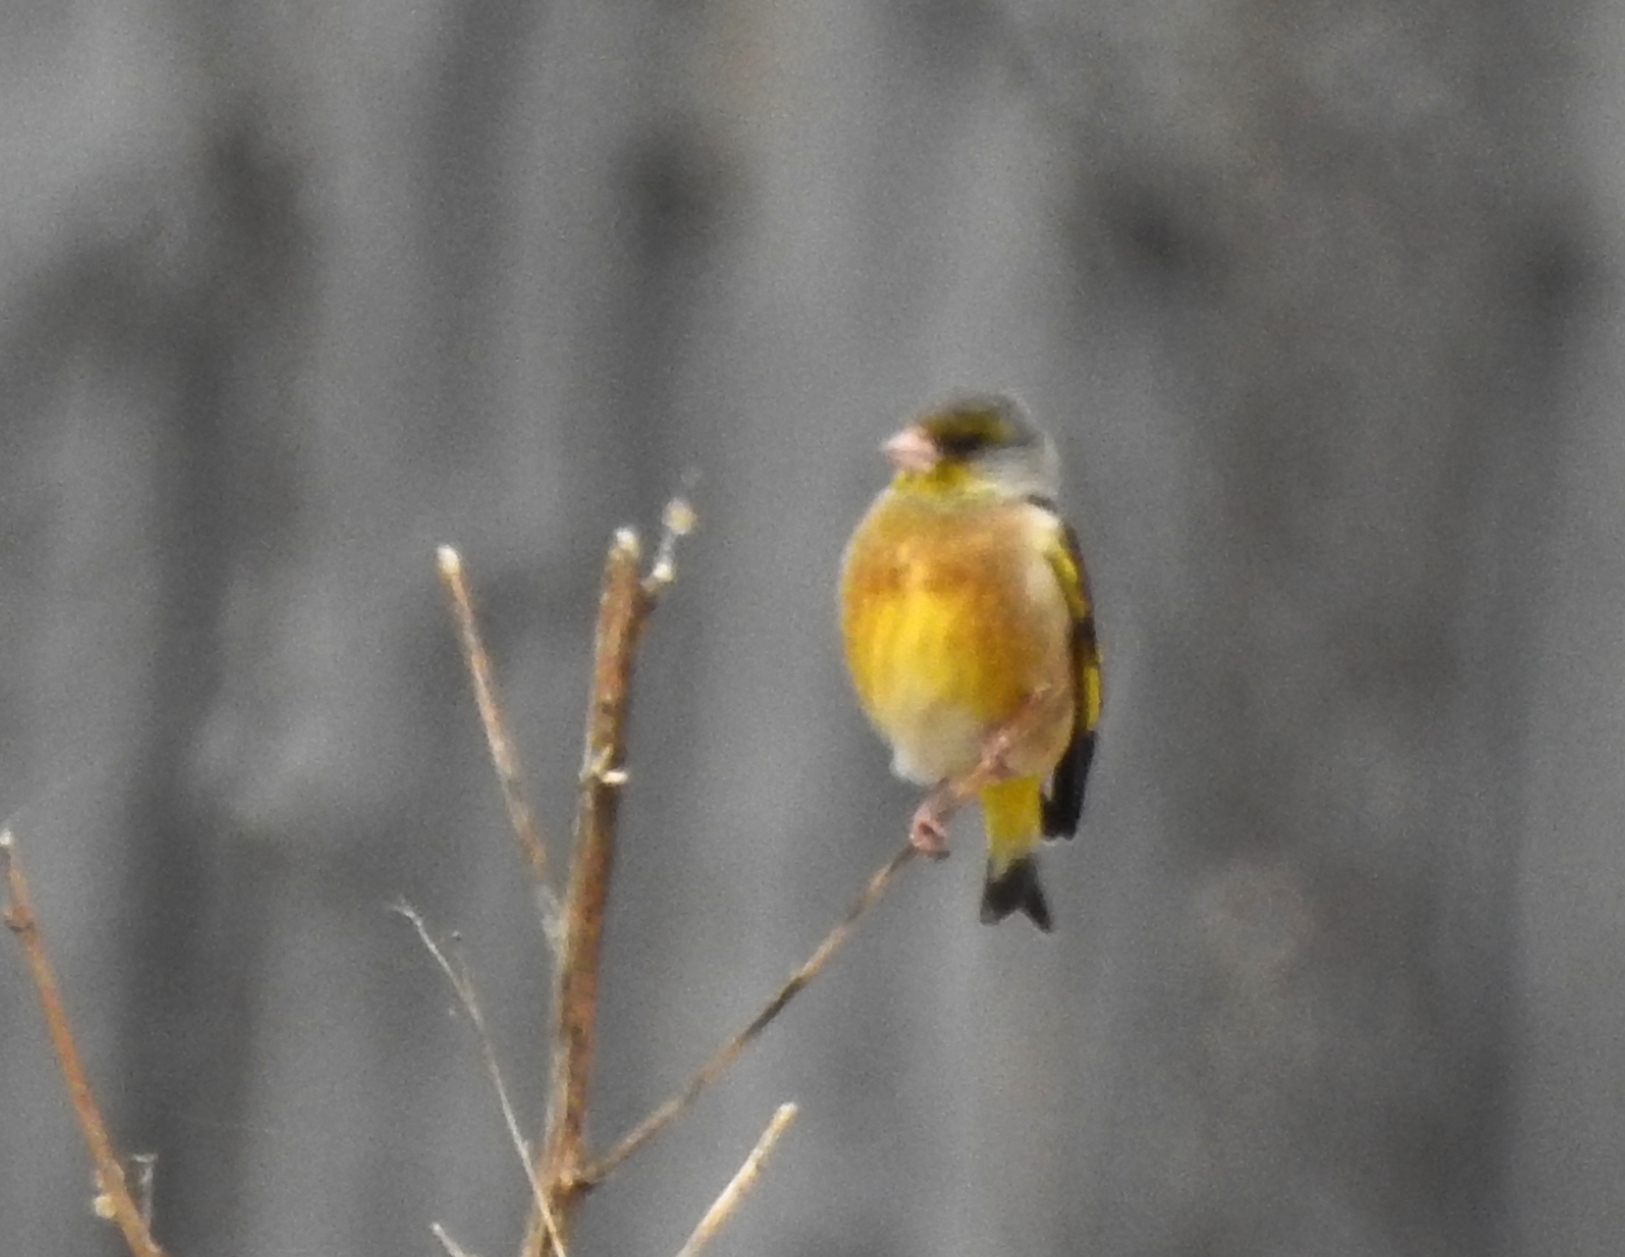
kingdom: Plantae
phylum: Tracheophyta
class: Liliopsida
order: Poales
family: Poaceae
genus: Chloris
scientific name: Chloris sinica
